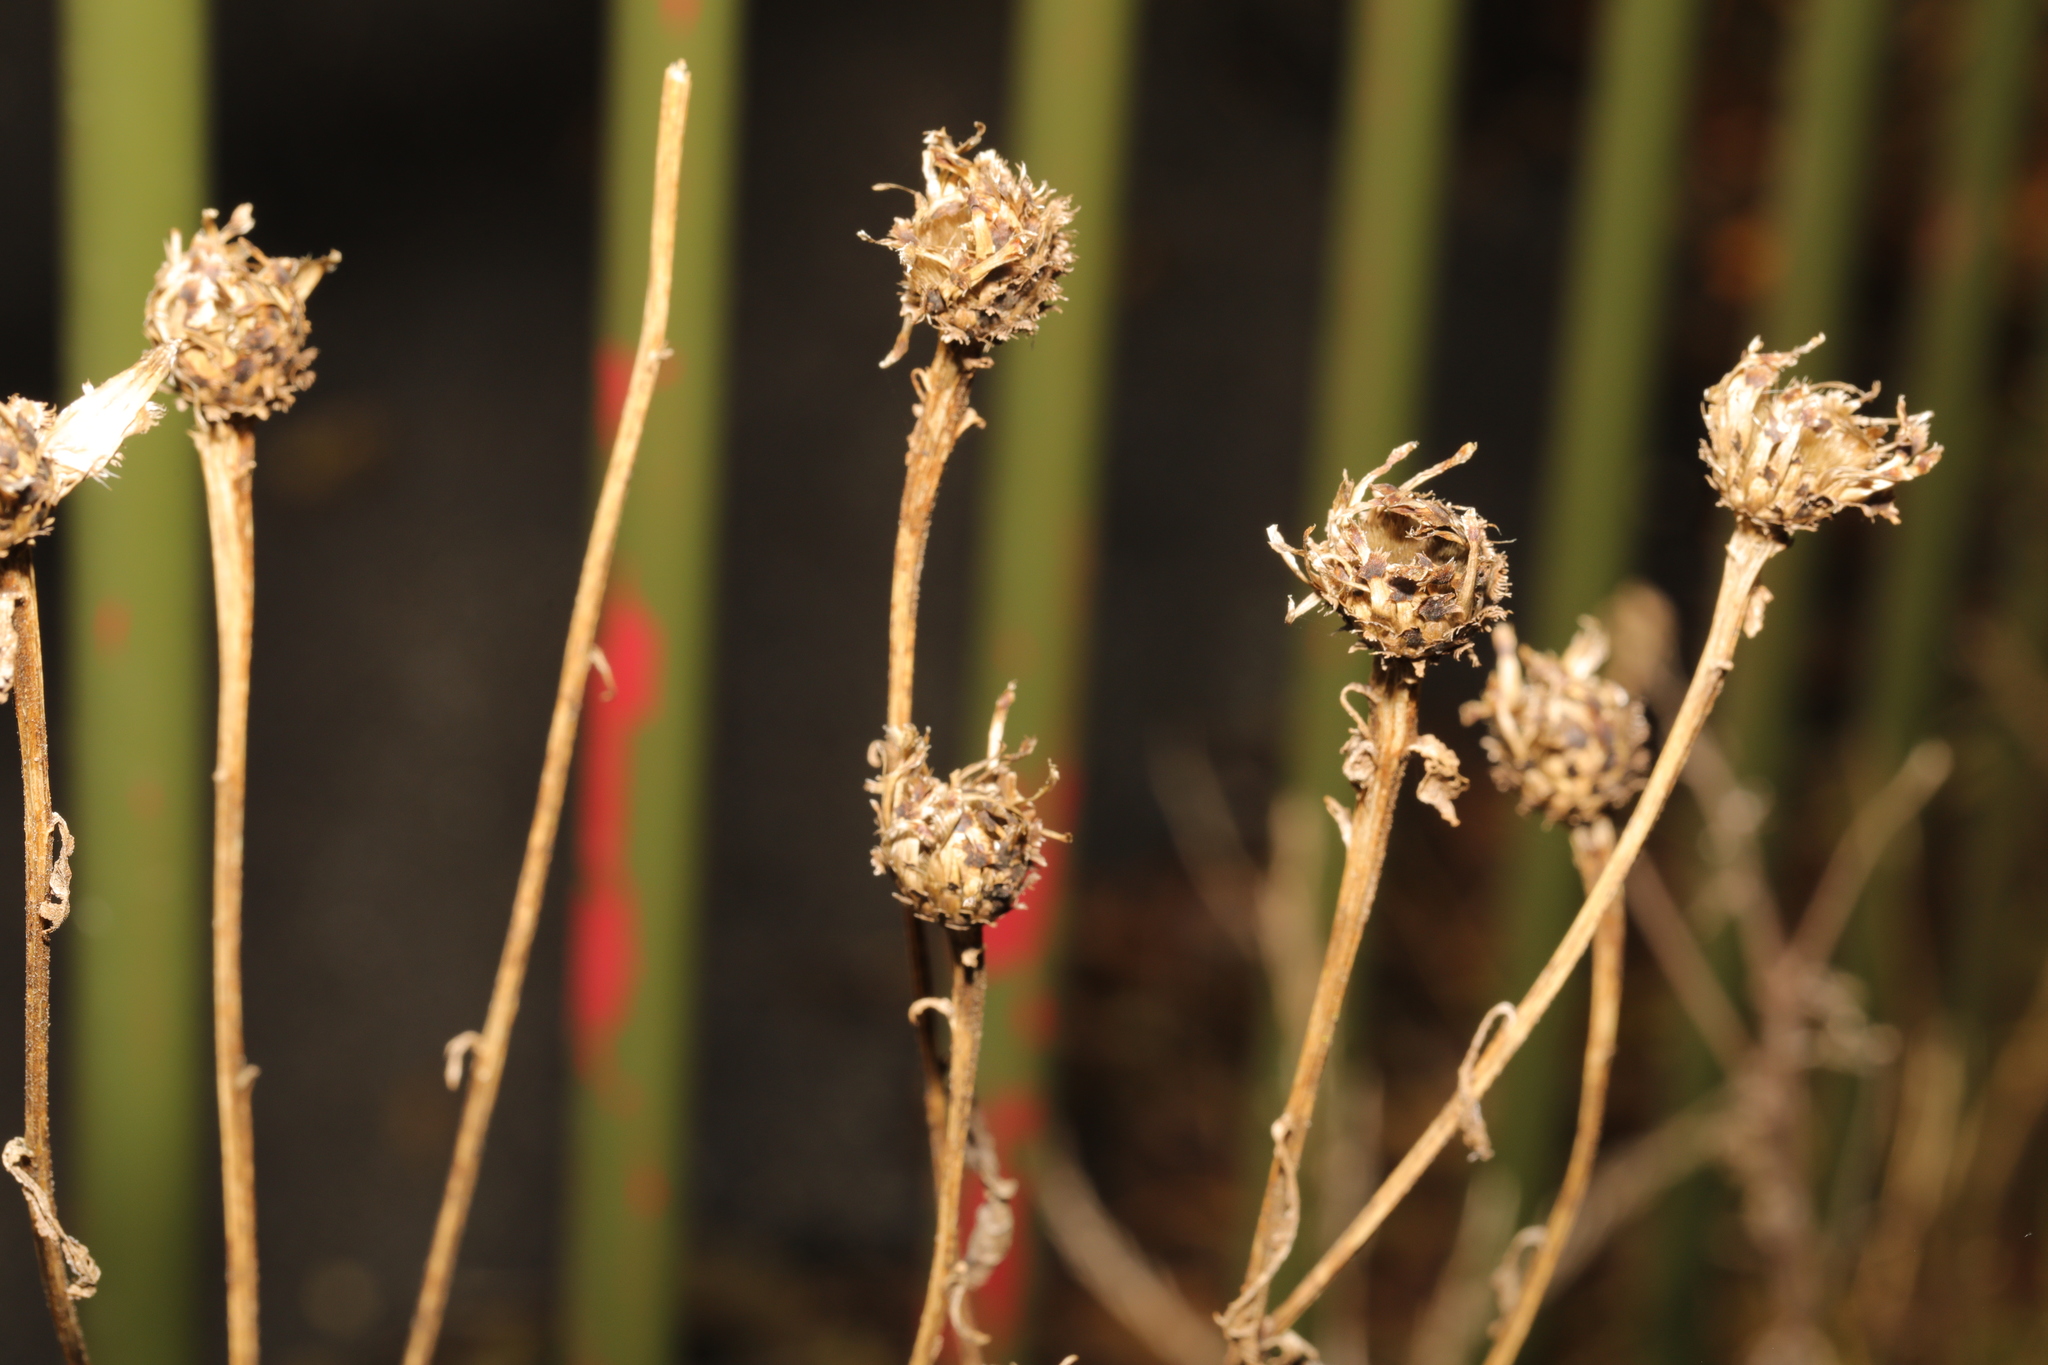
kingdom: Plantae
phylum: Tracheophyta
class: Magnoliopsida
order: Asterales
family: Asteraceae
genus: Centaurea
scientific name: Centaurea nigra
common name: Lesser knapweed
